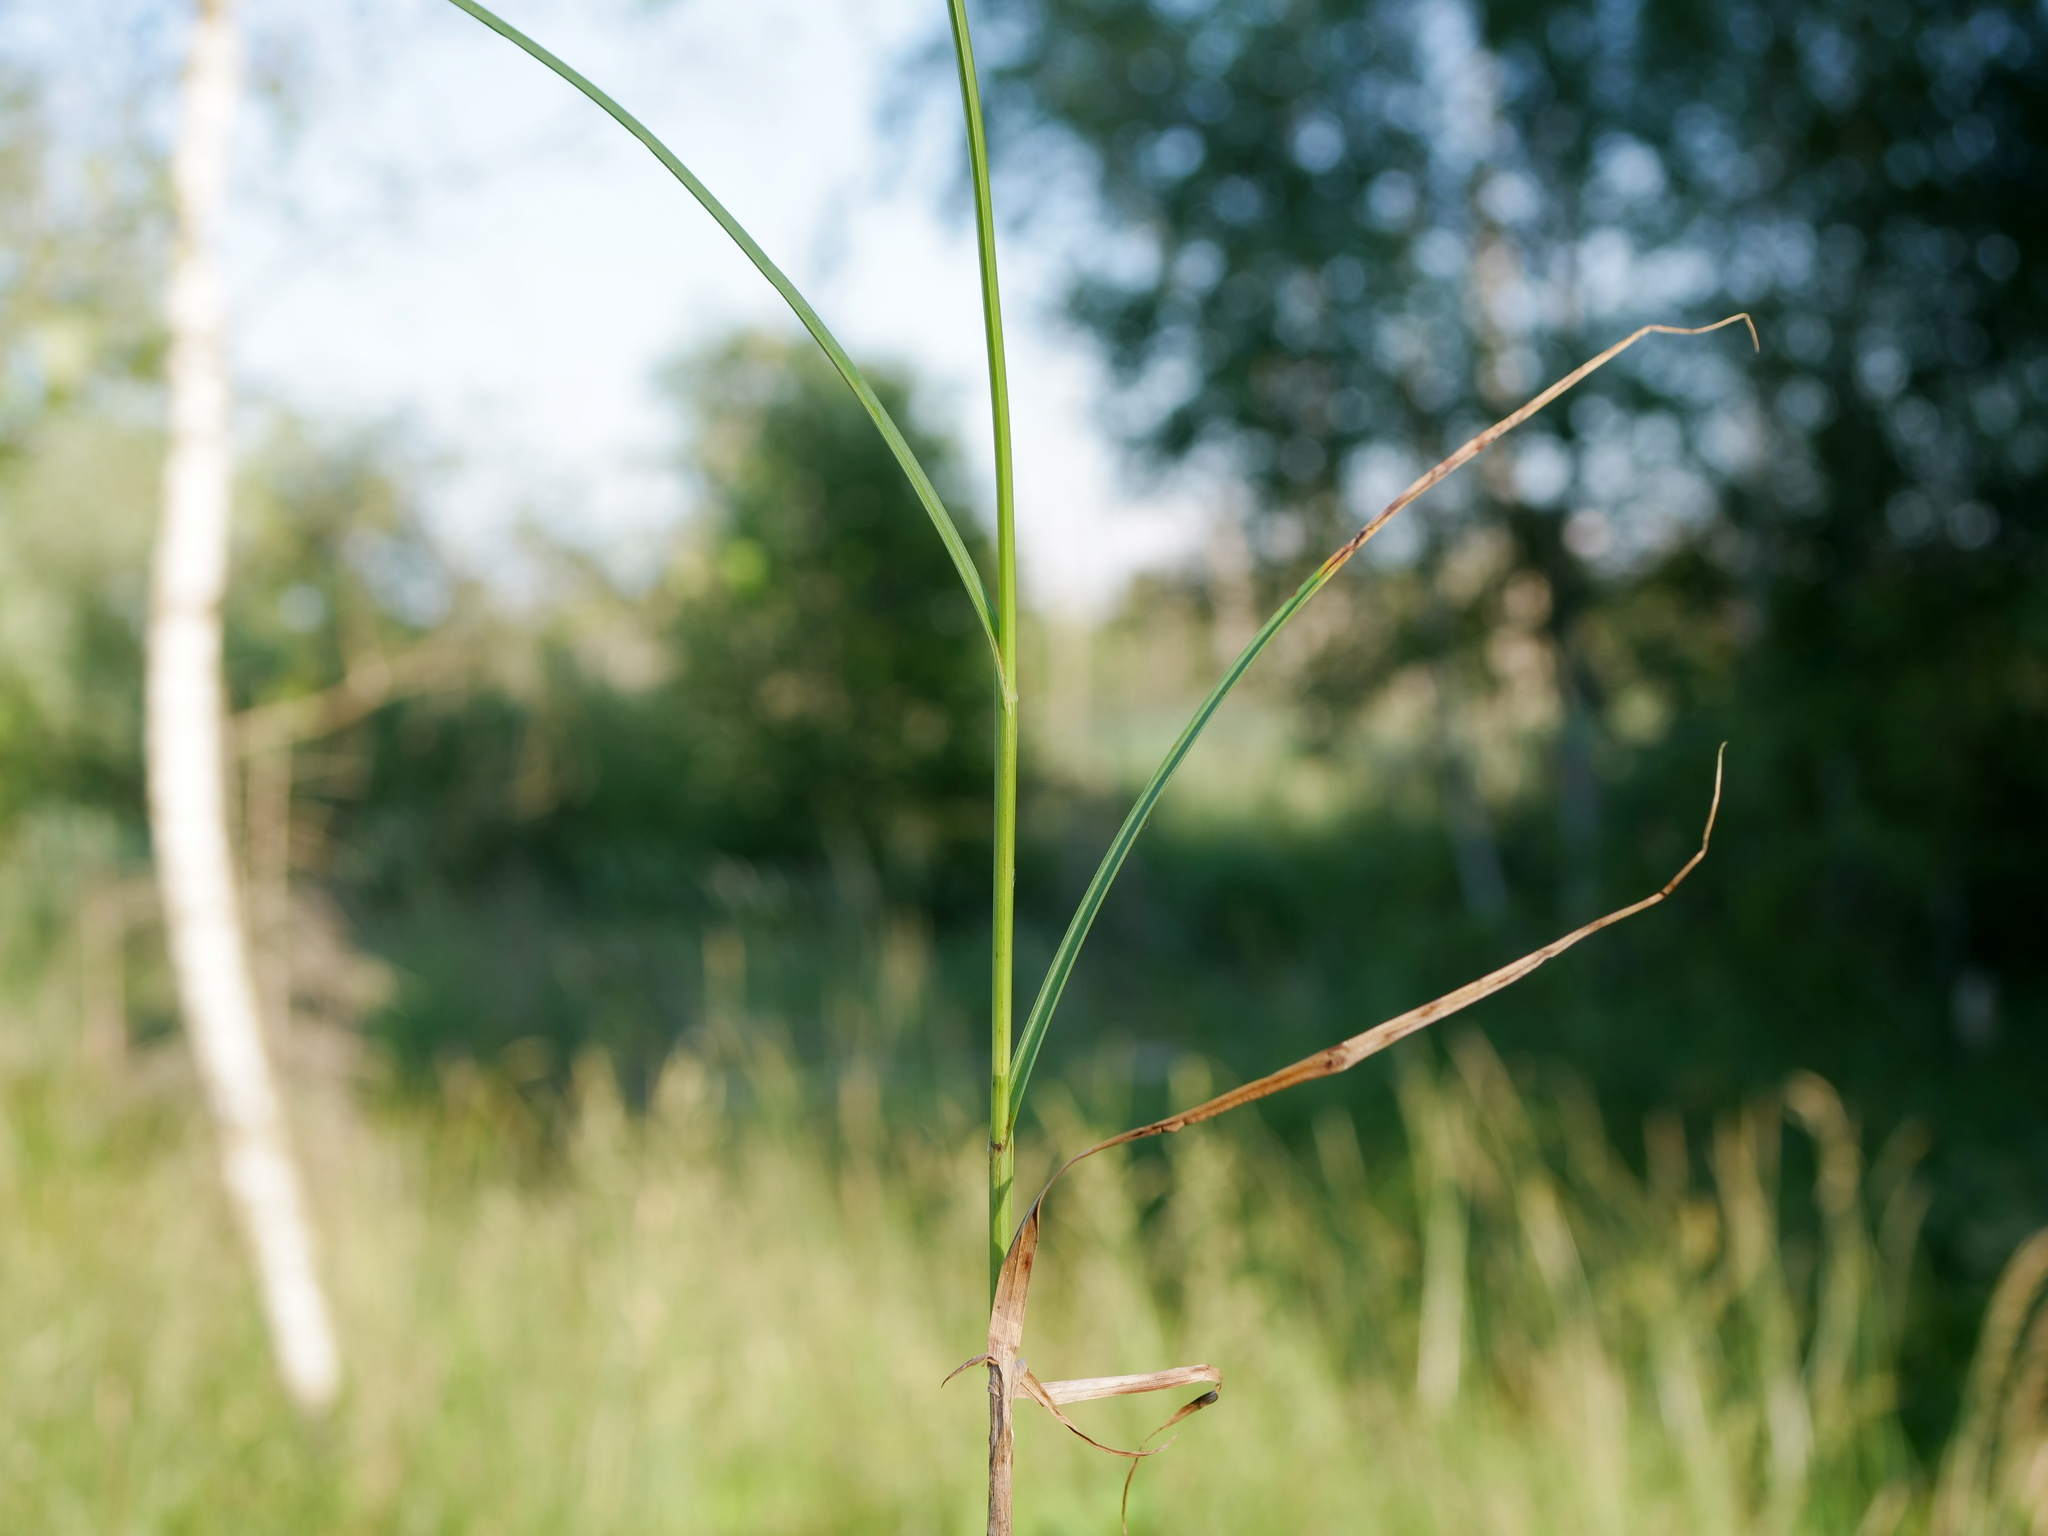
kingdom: Plantae
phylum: Tracheophyta
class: Liliopsida
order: Poales
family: Cyperaceae
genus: Carex
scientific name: Carex disticha
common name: Brown sedge
